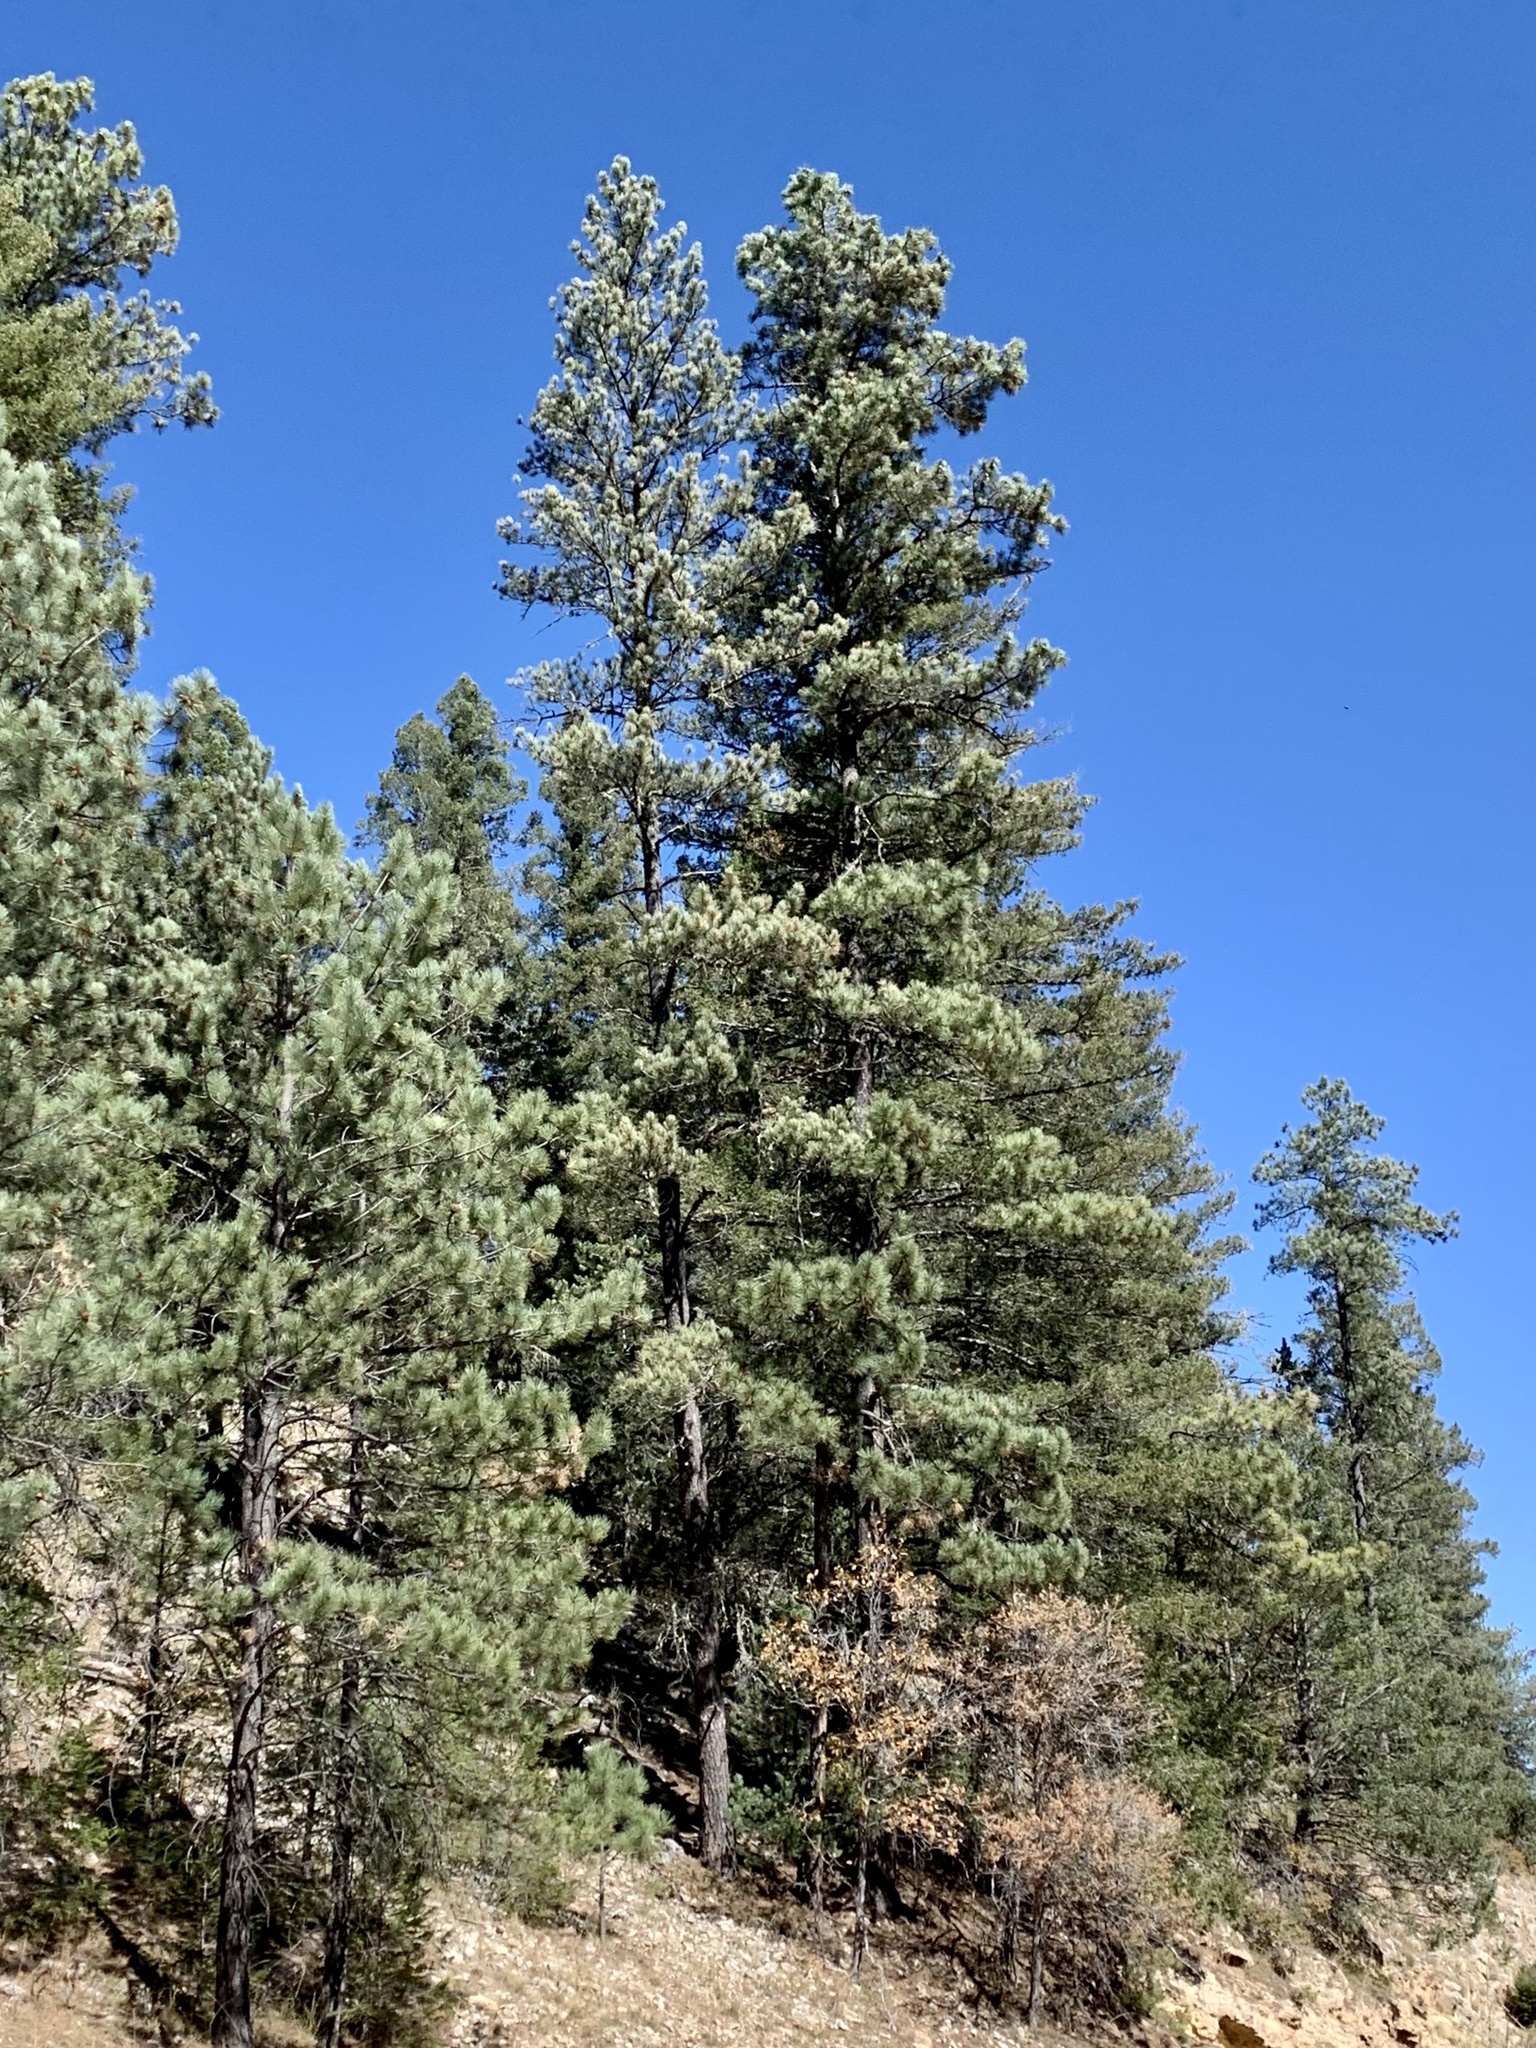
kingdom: Plantae
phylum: Tracheophyta
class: Pinopsida
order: Pinales
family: Pinaceae
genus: Pinus
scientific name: Pinus ponderosa
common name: Western yellow-pine
